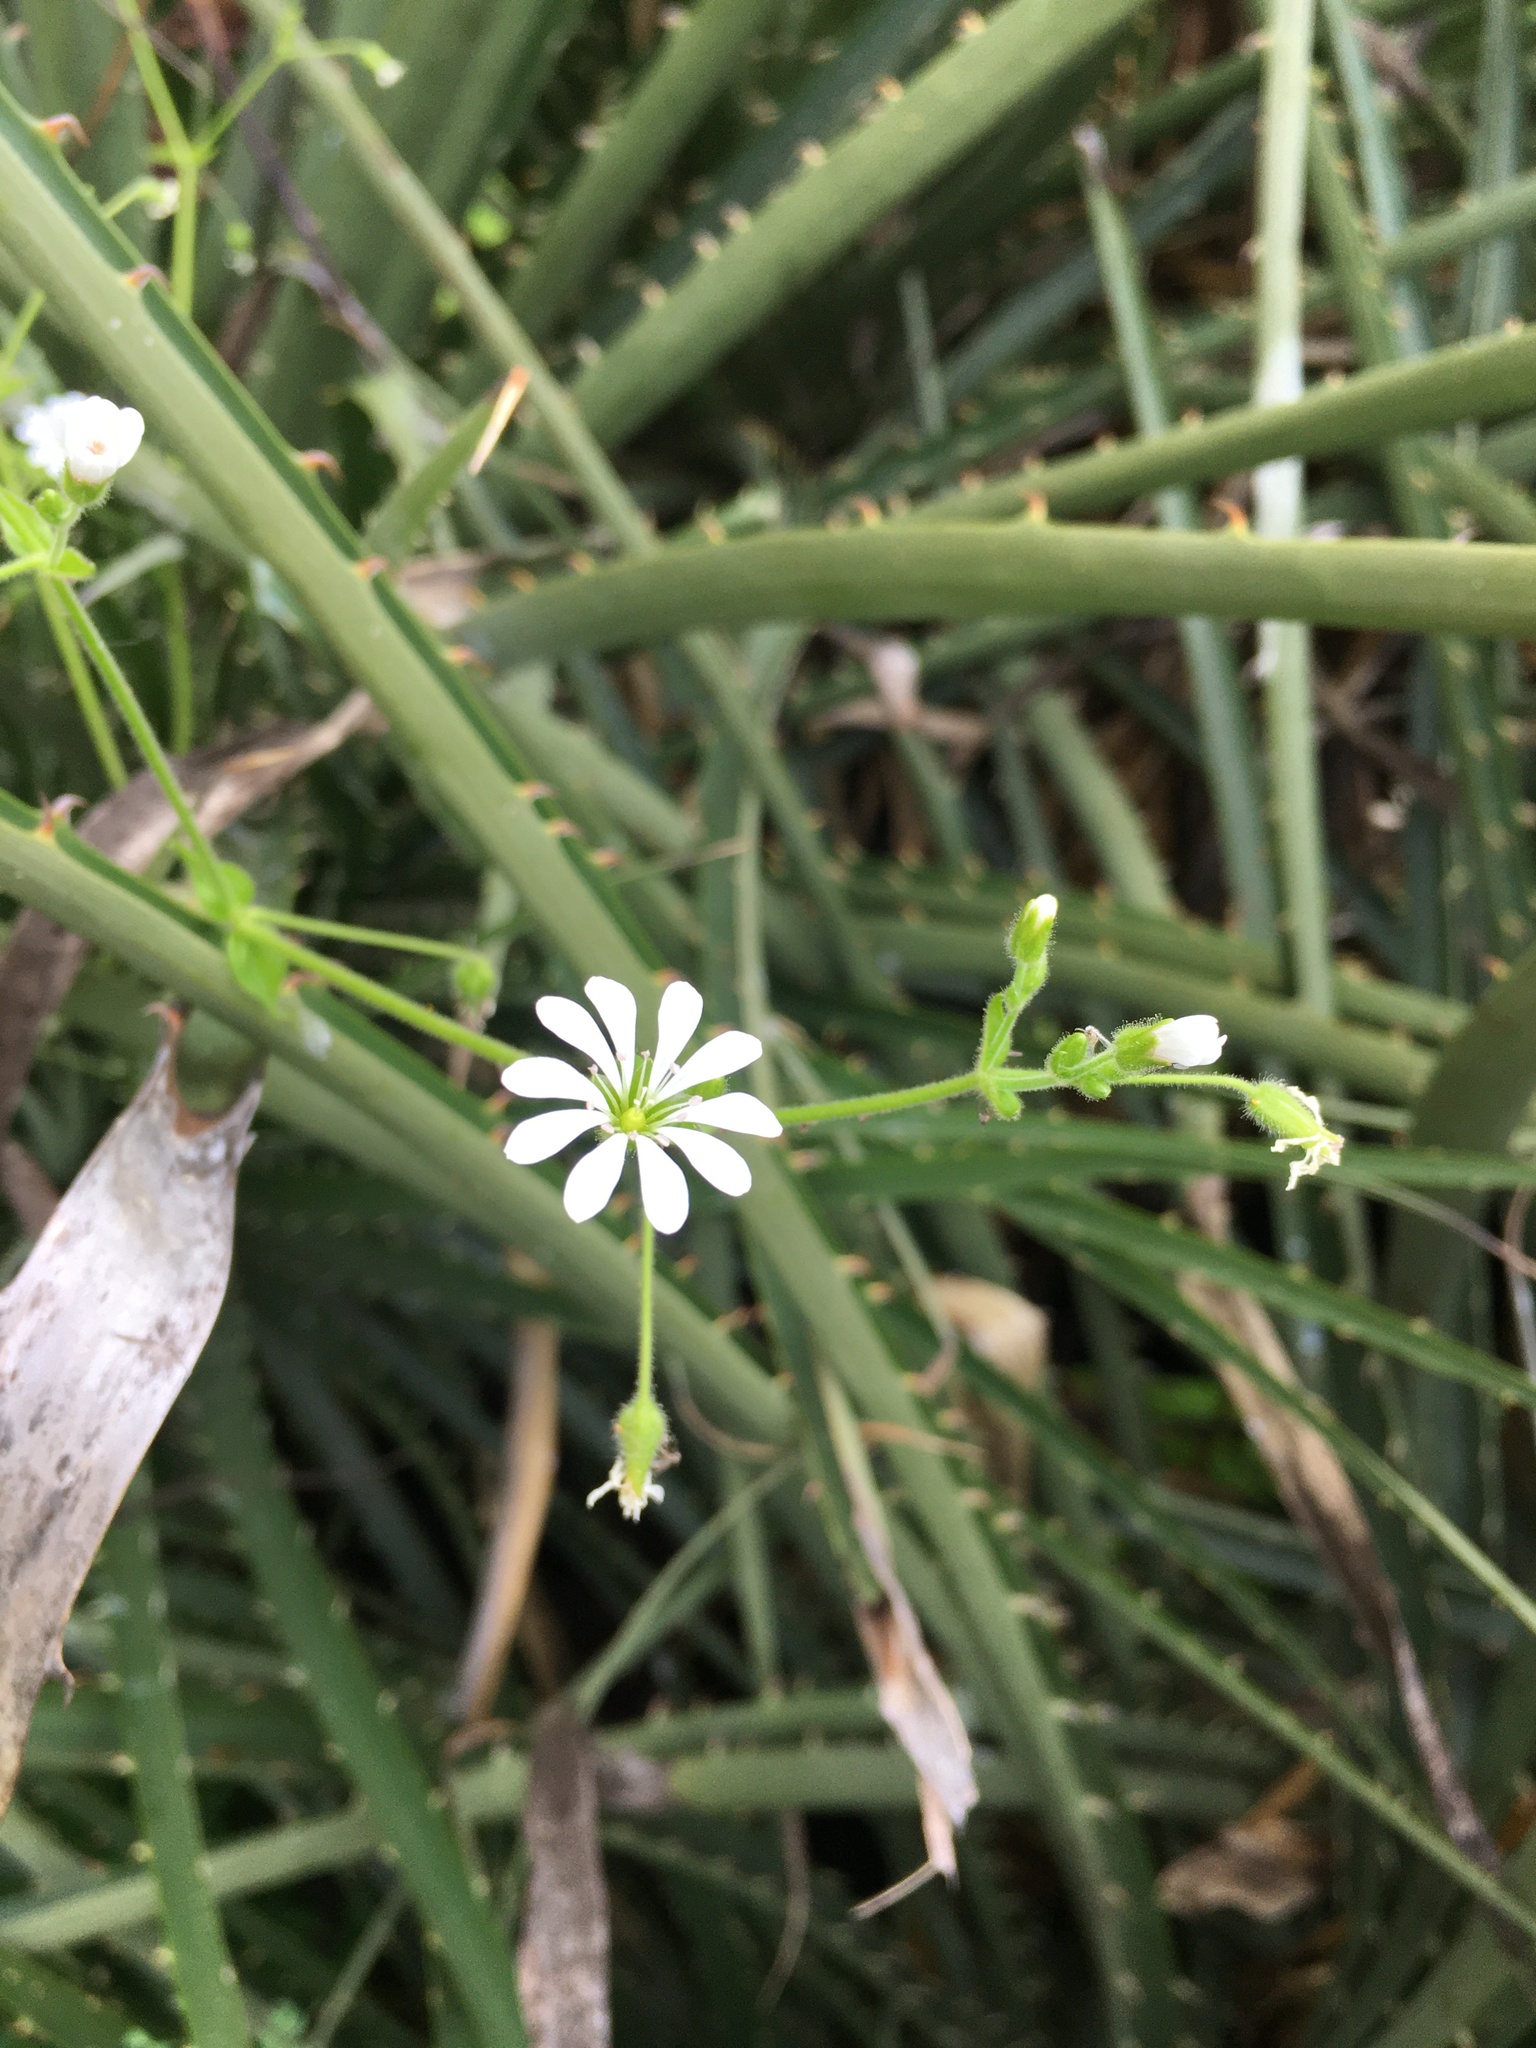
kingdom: Plantae
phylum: Tracheophyta
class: Magnoliopsida
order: Caryophyllales
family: Caryophyllaceae
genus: Stellaria
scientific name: Stellaria chilensis
